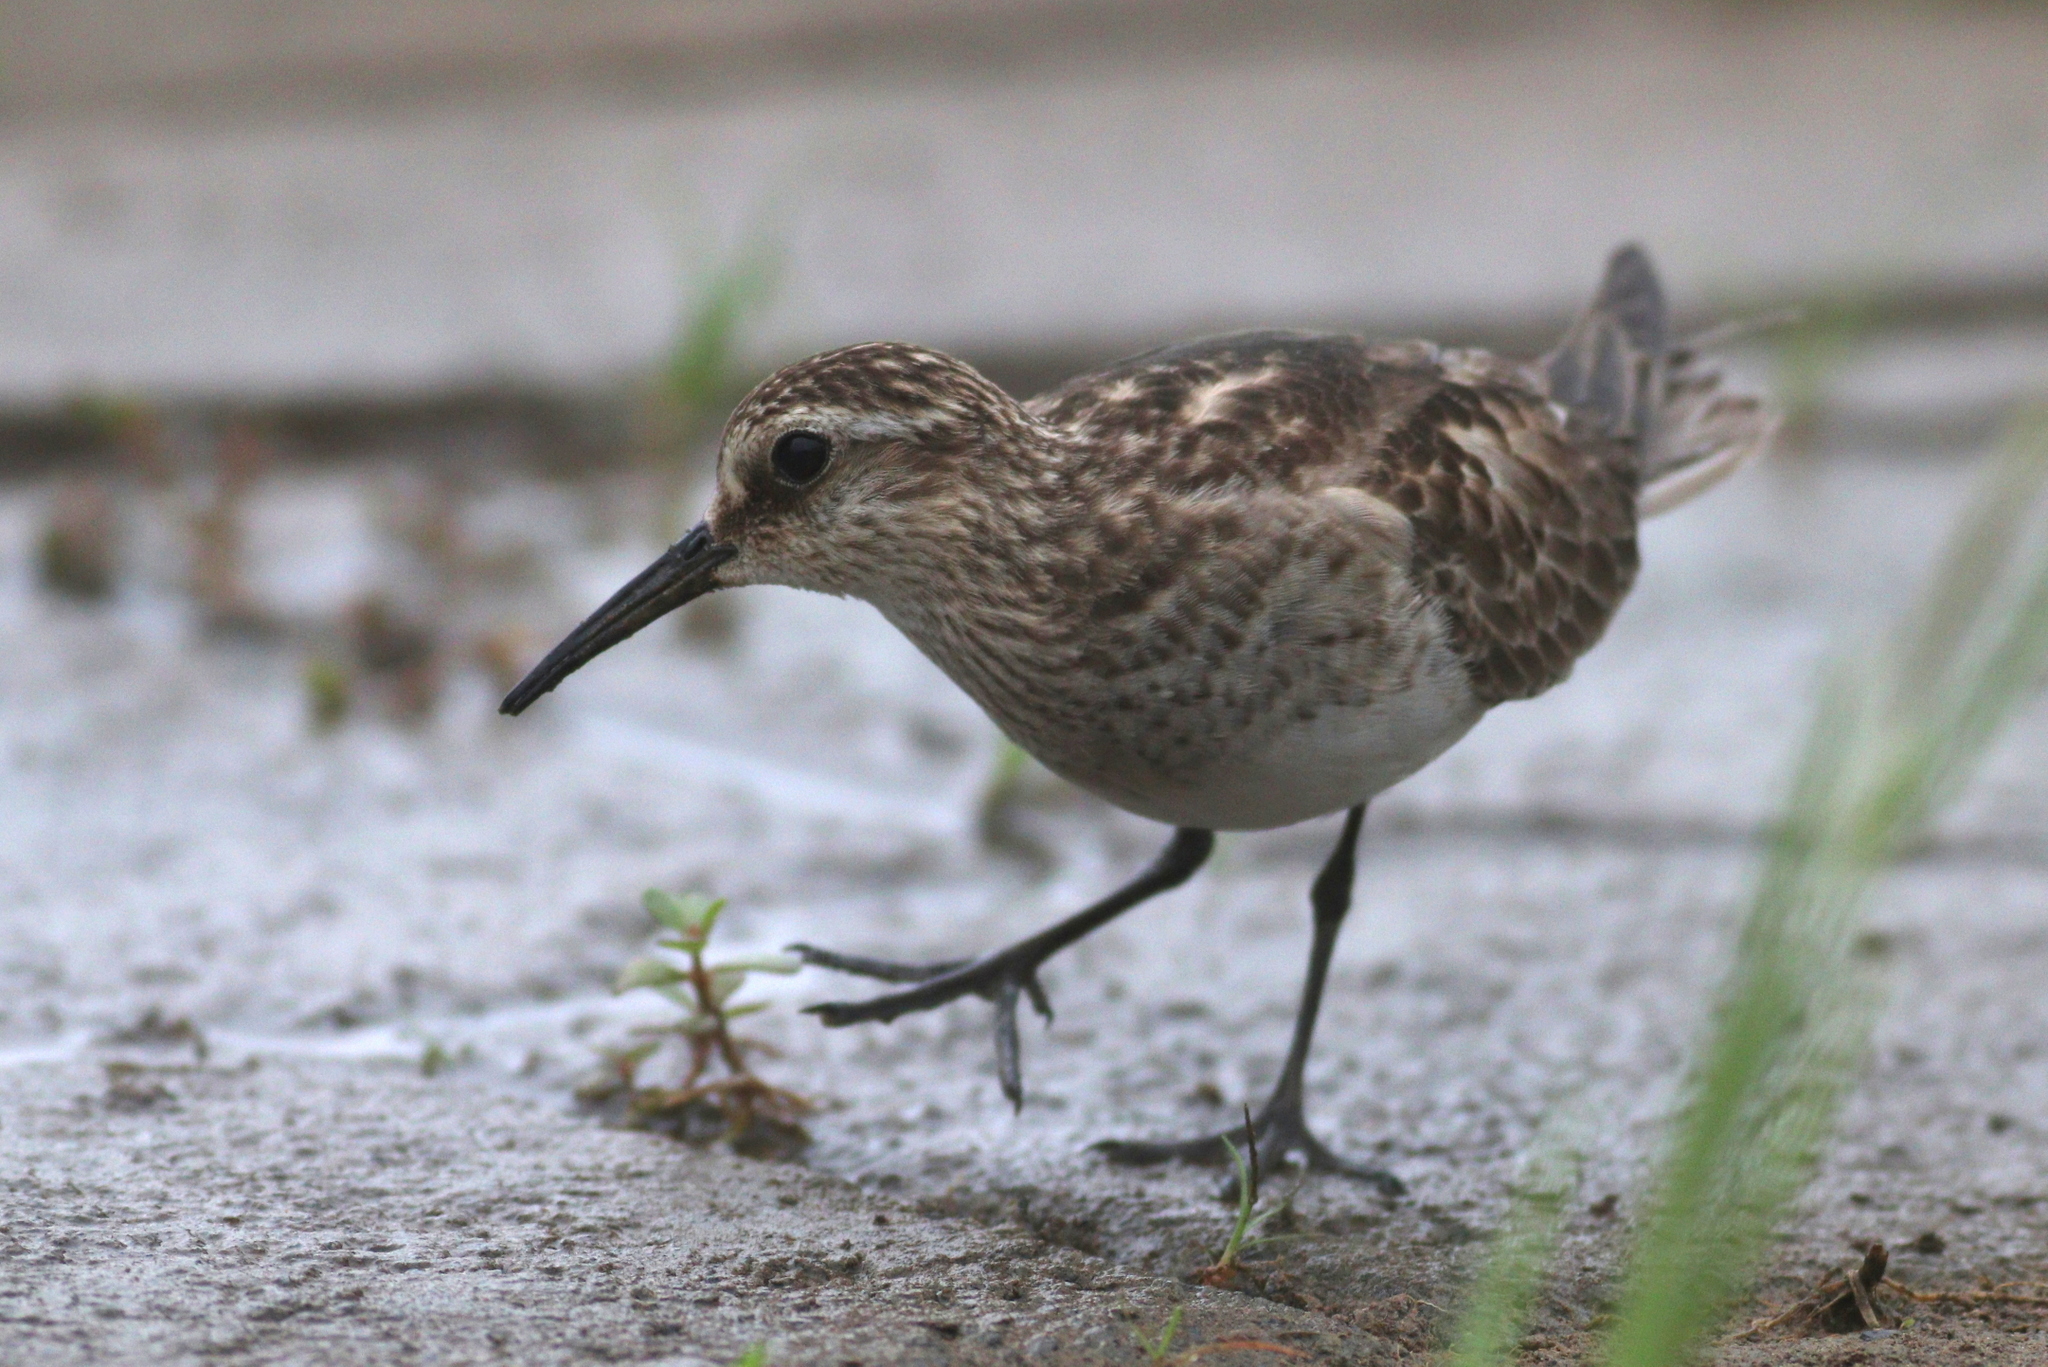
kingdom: Animalia
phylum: Chordata
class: Aves
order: Charadriiformes
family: Scolopacidae
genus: Calidris
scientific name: Calidris bairdii
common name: Baird's sandpiper
